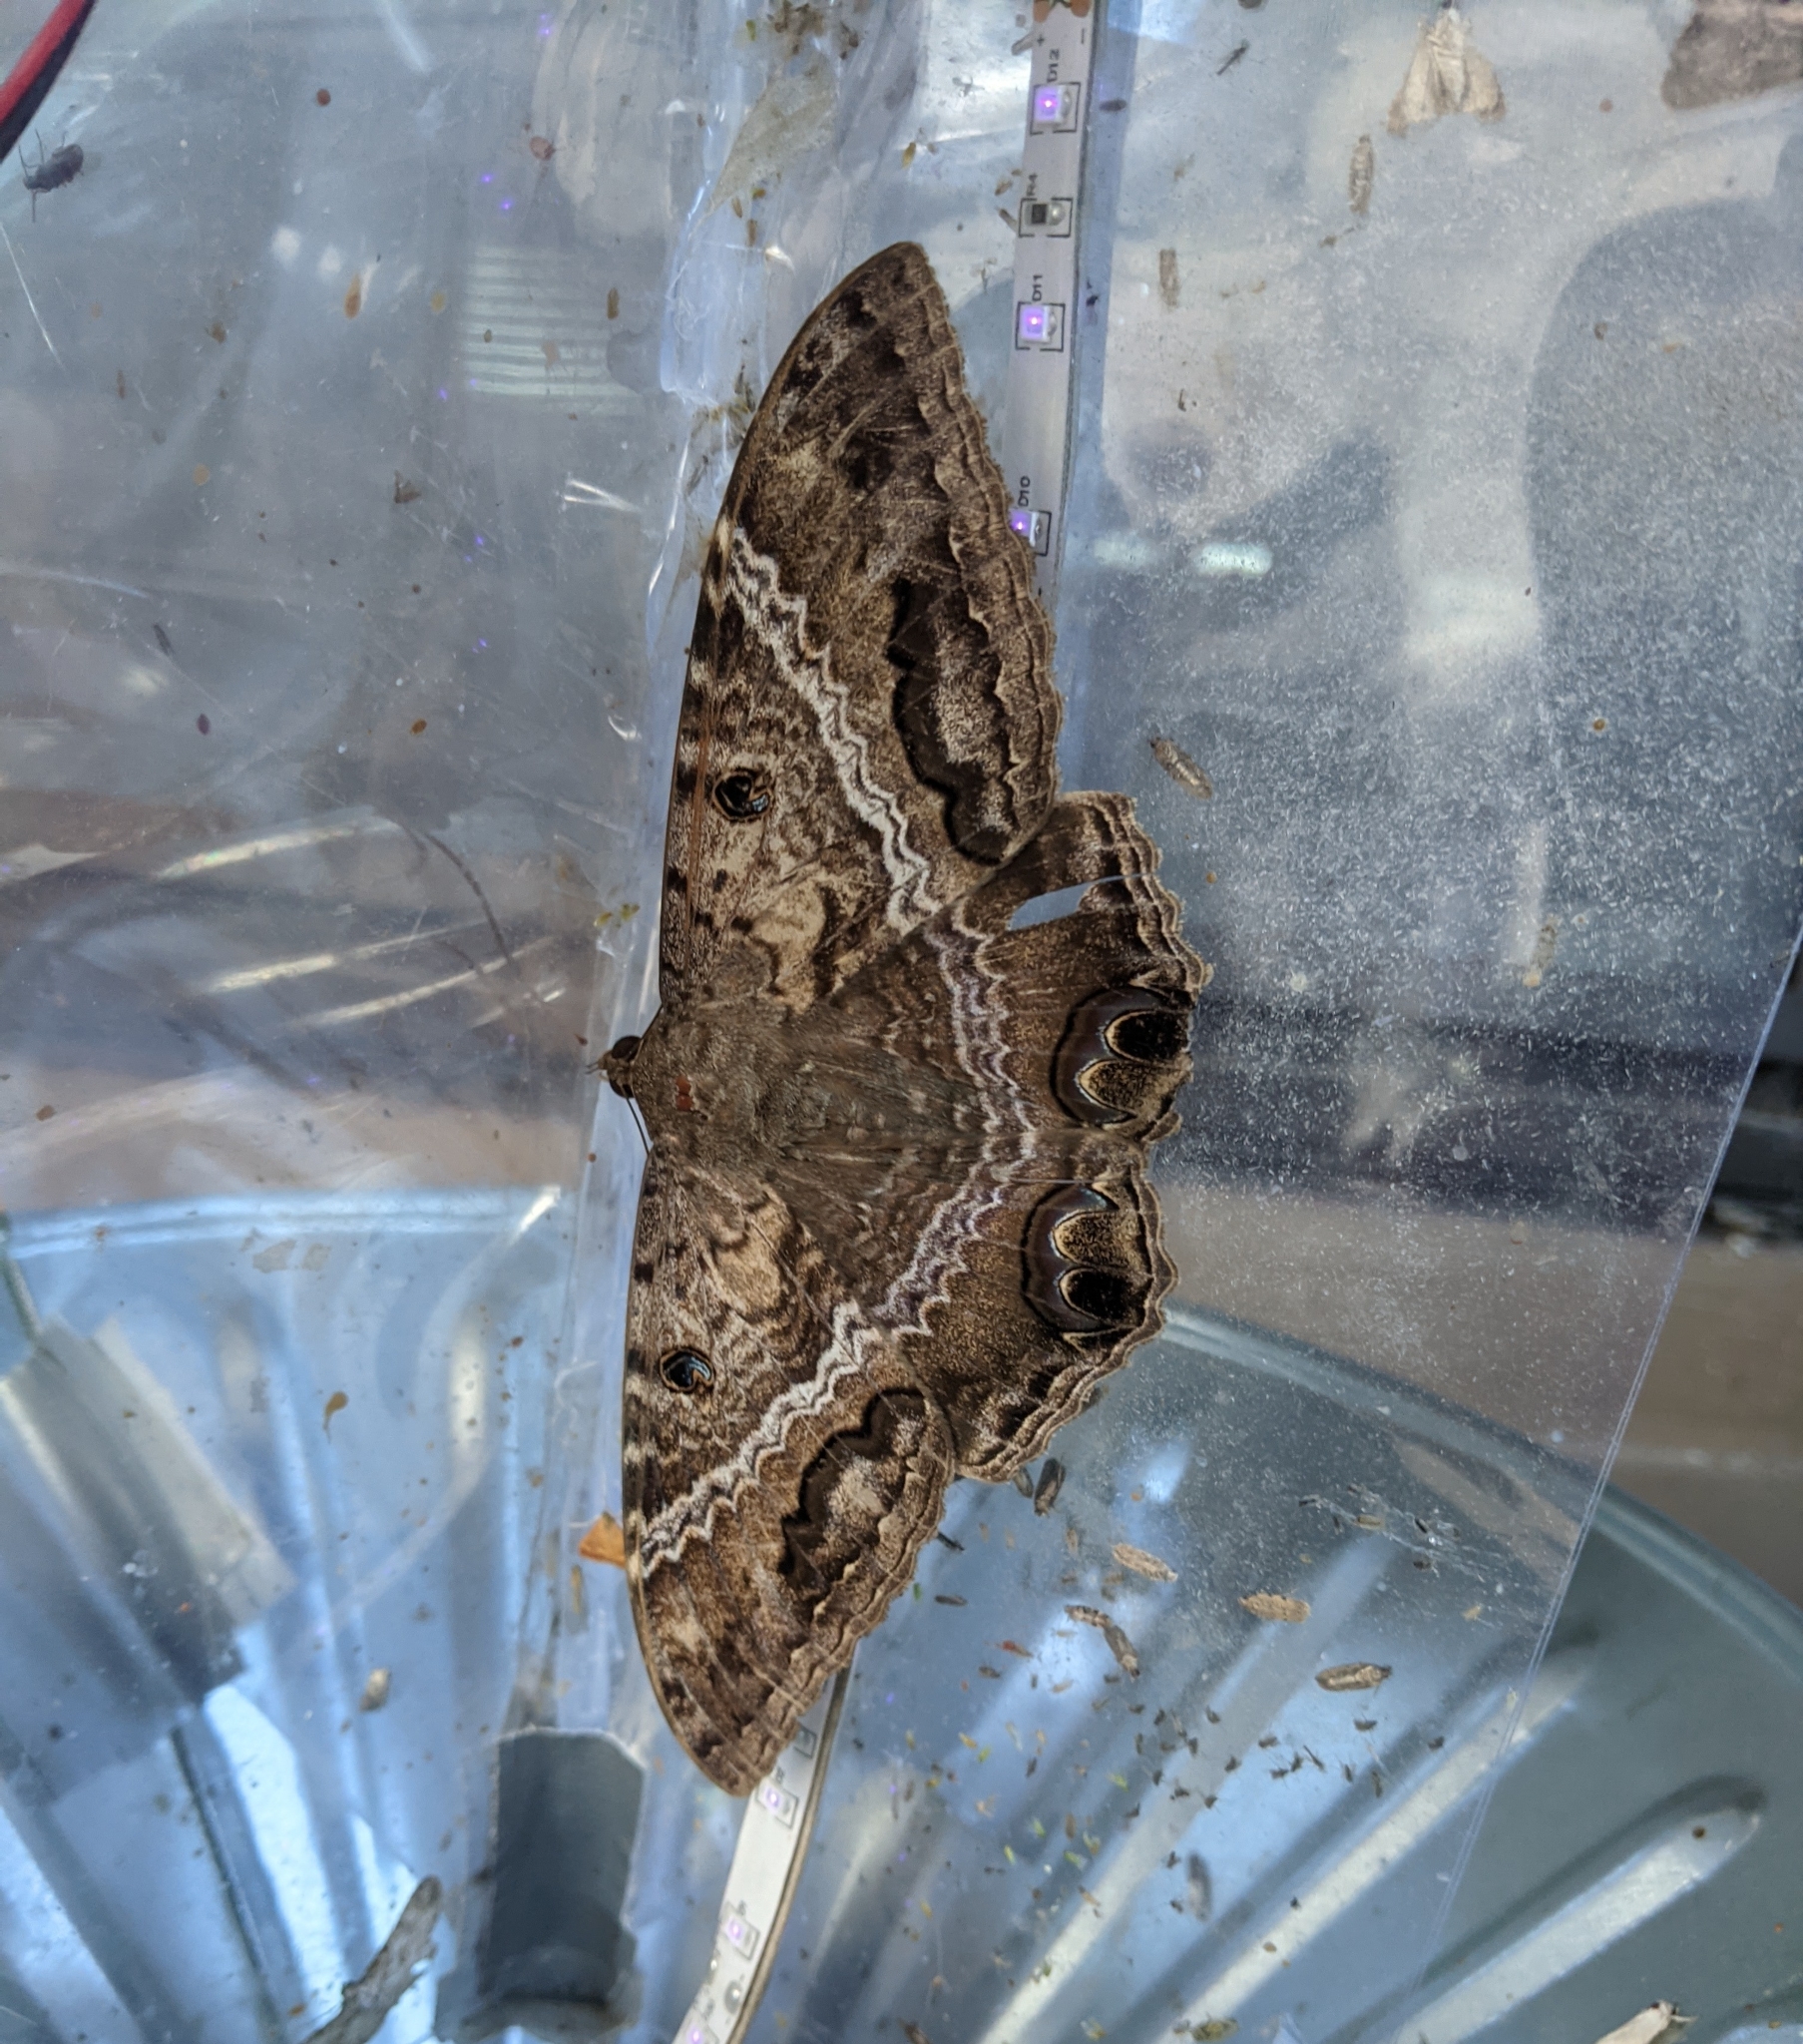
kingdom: Animalia
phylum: Arthropoda
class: Insecta
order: Lepidoptera
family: Erebidae
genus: Ascalapha
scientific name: Ascalapha odorata
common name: Black witch
